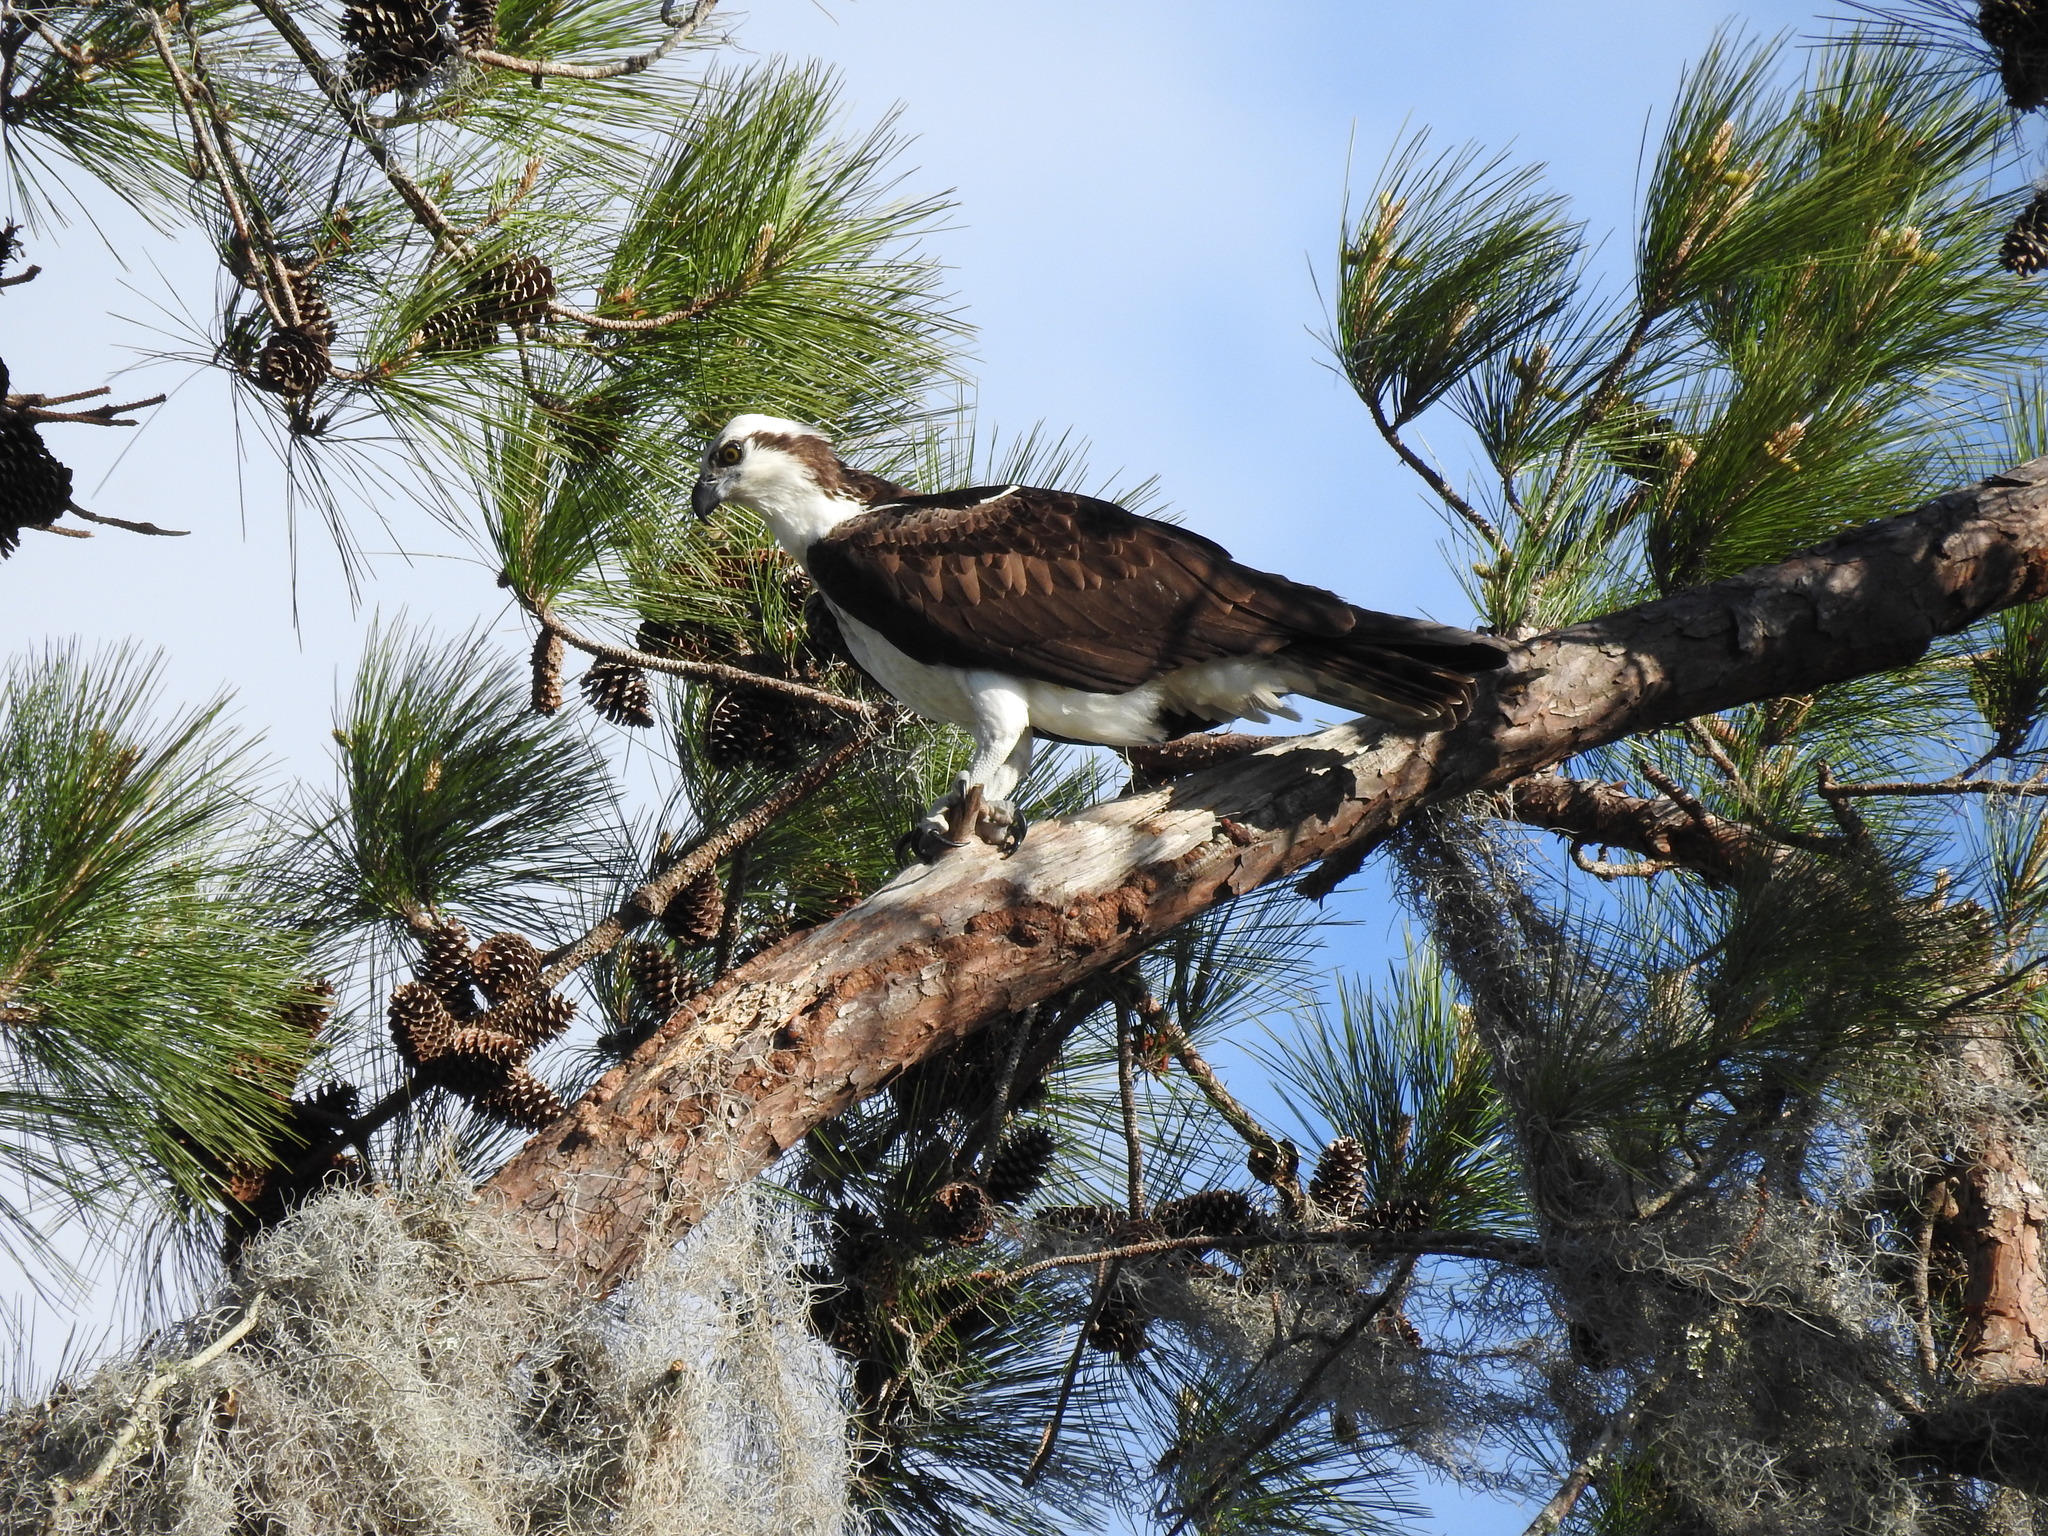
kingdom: Animalia
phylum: Chordata
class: Aves
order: Accipitriformes
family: Pandionidae
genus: Pandion
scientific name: Pandion haliaetus
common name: Osprey
